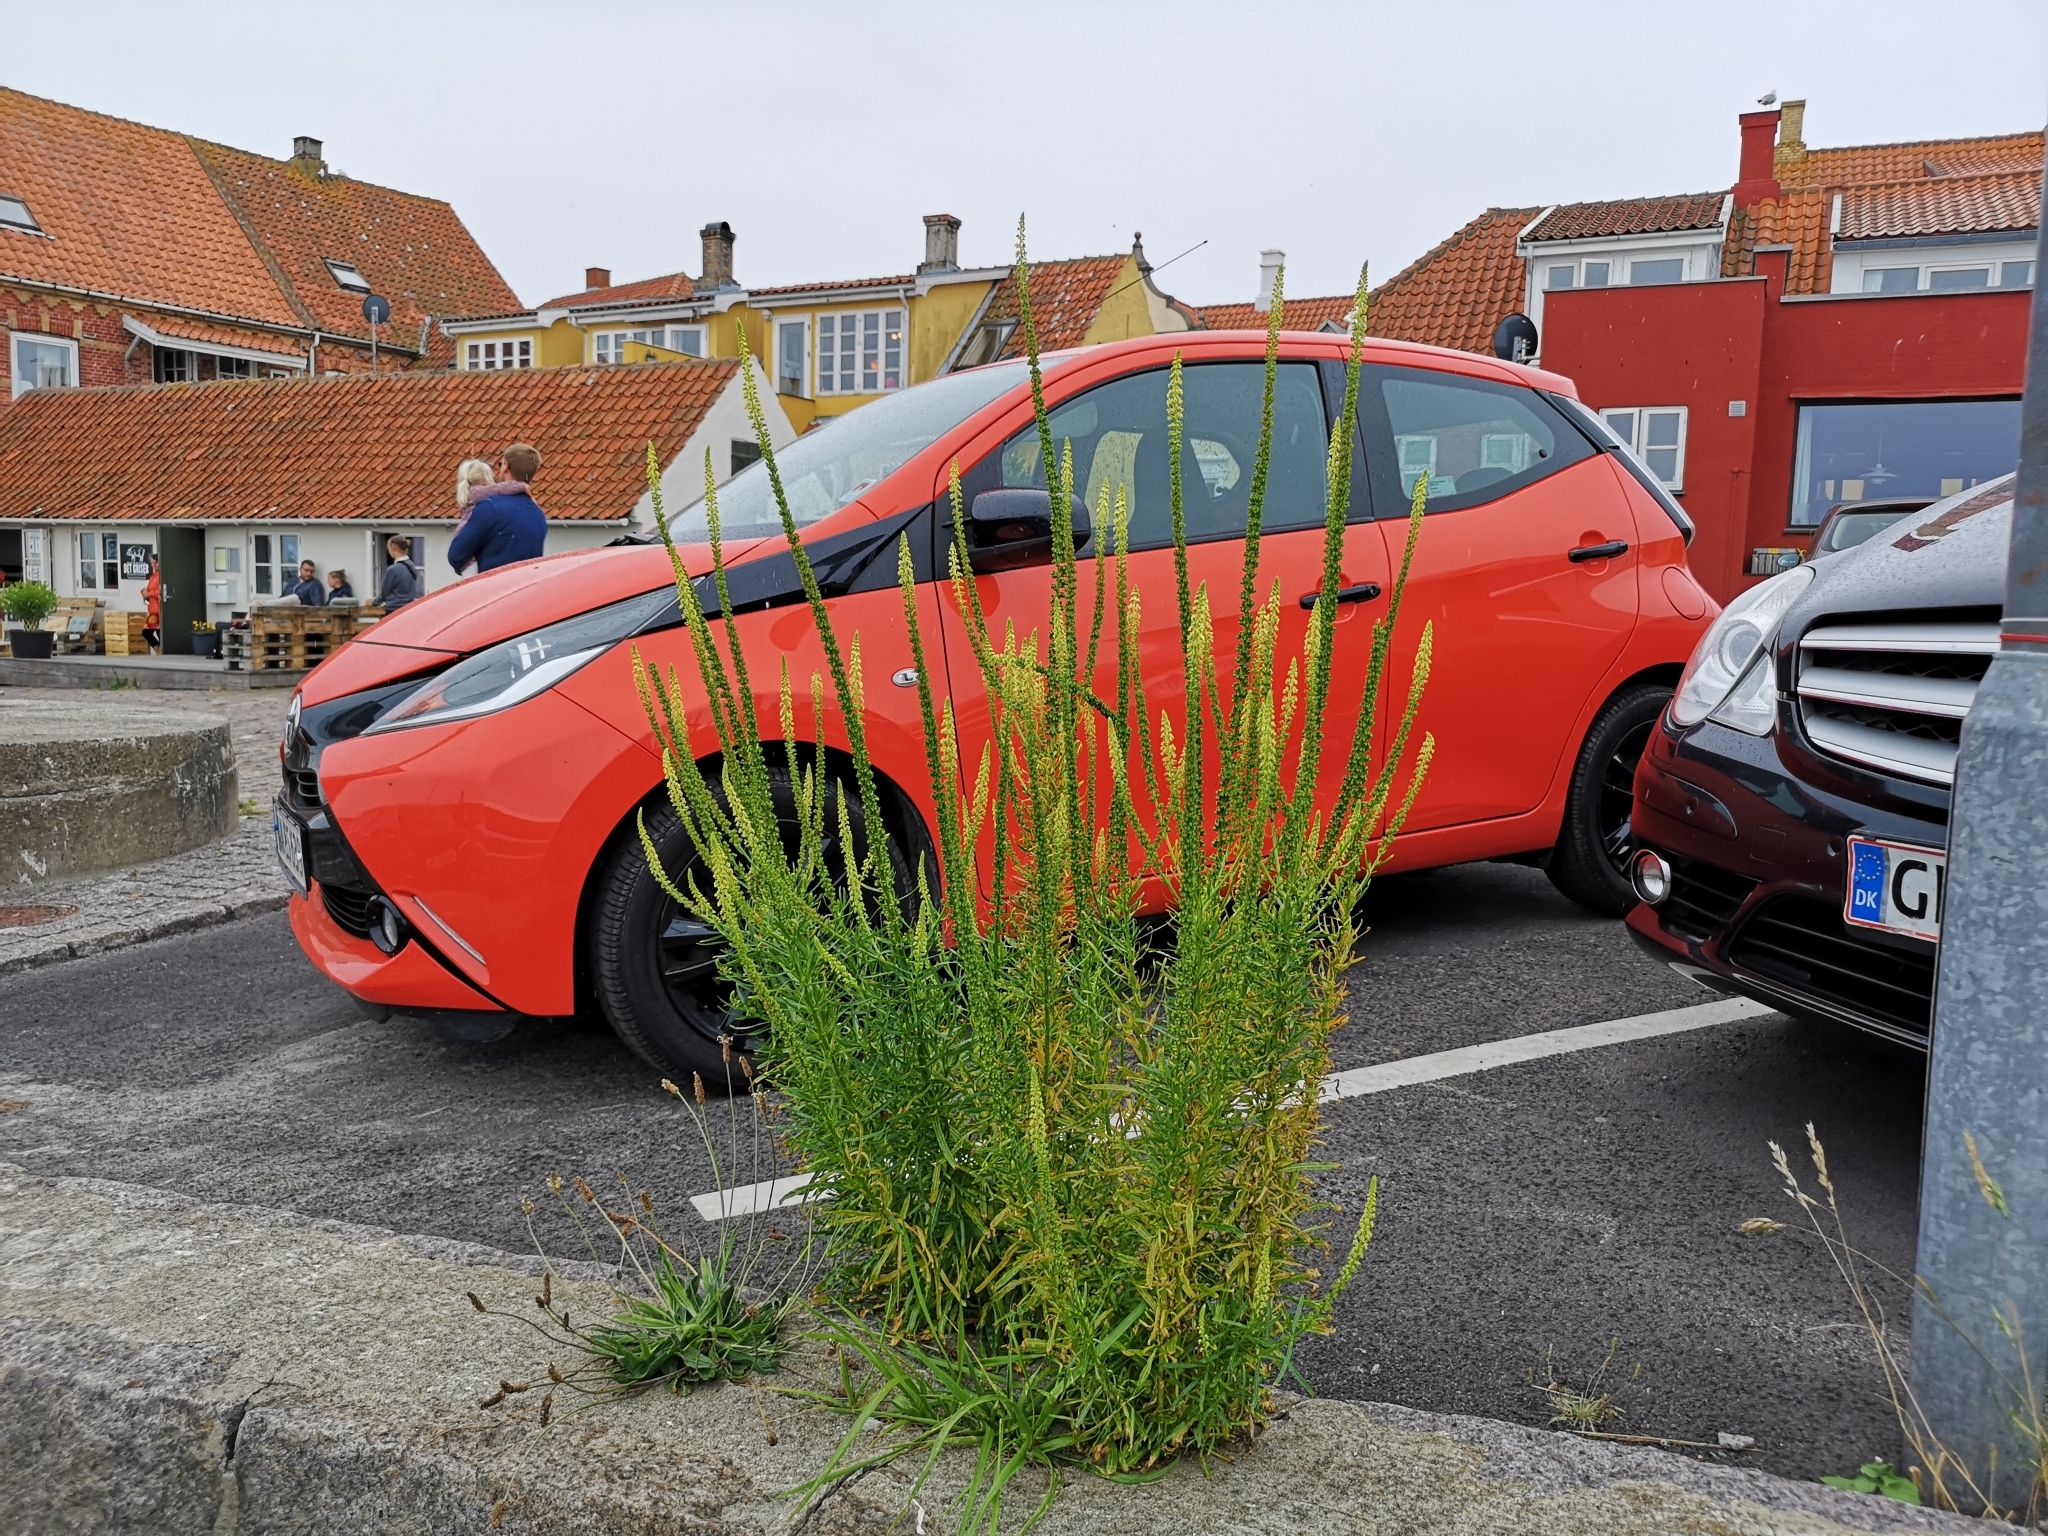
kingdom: Plantae
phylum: Tracheophyta
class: Magnoliopsida
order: Brassicales
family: Resedaceae
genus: Reseda
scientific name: Reseda luteola
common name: Weld
